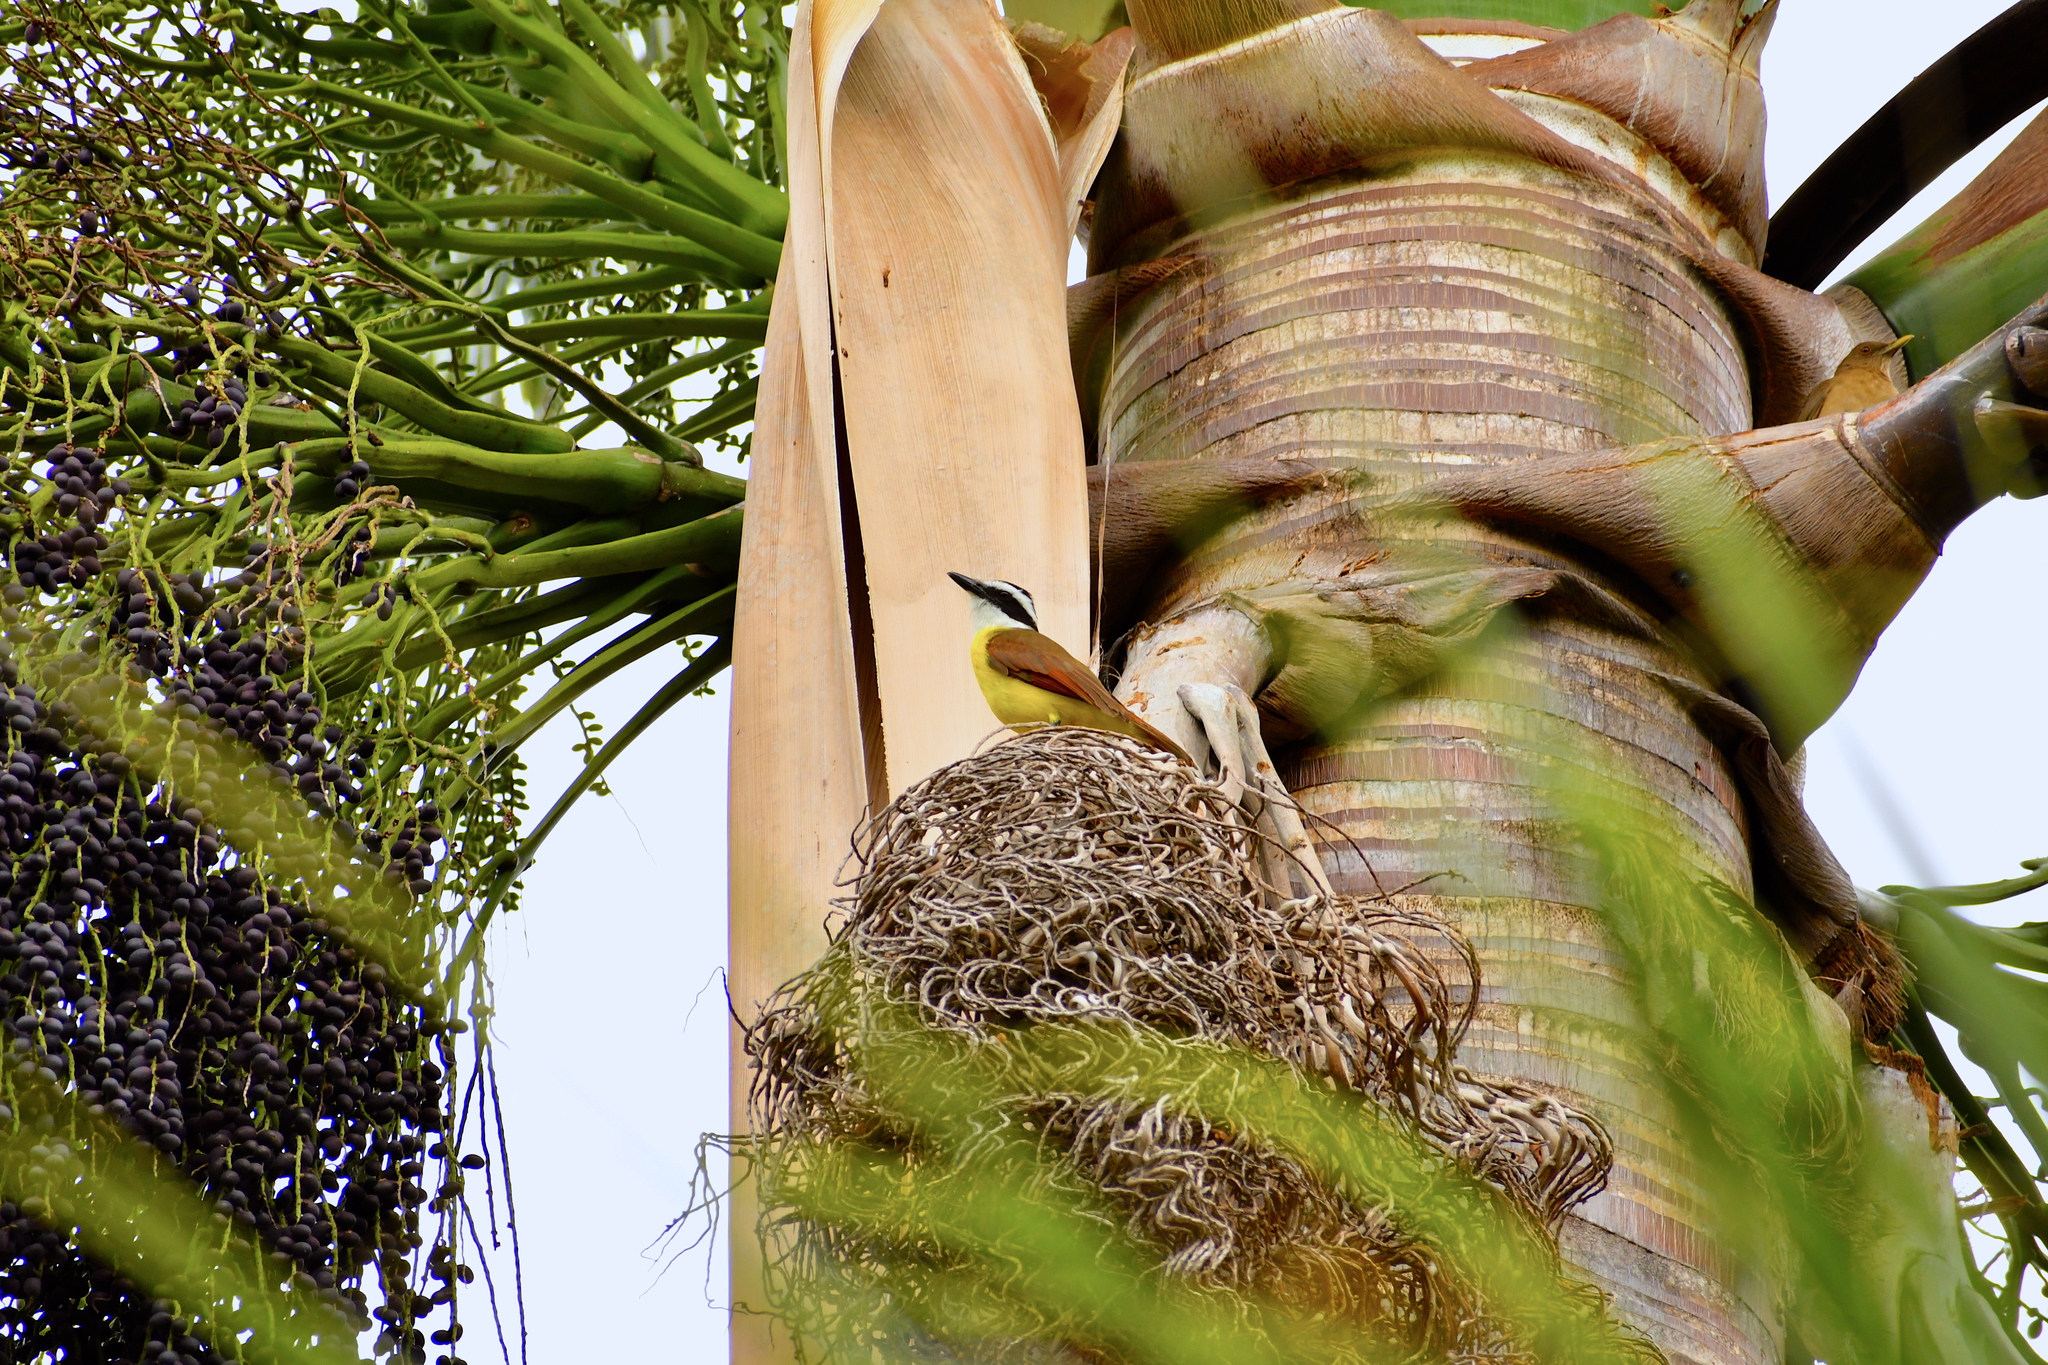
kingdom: Animalia
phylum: Chordata
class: Aves
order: Passeriformes
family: Tyrannidae
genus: Pitangus
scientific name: Pitangus sulphuratus
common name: Great kiskadee
